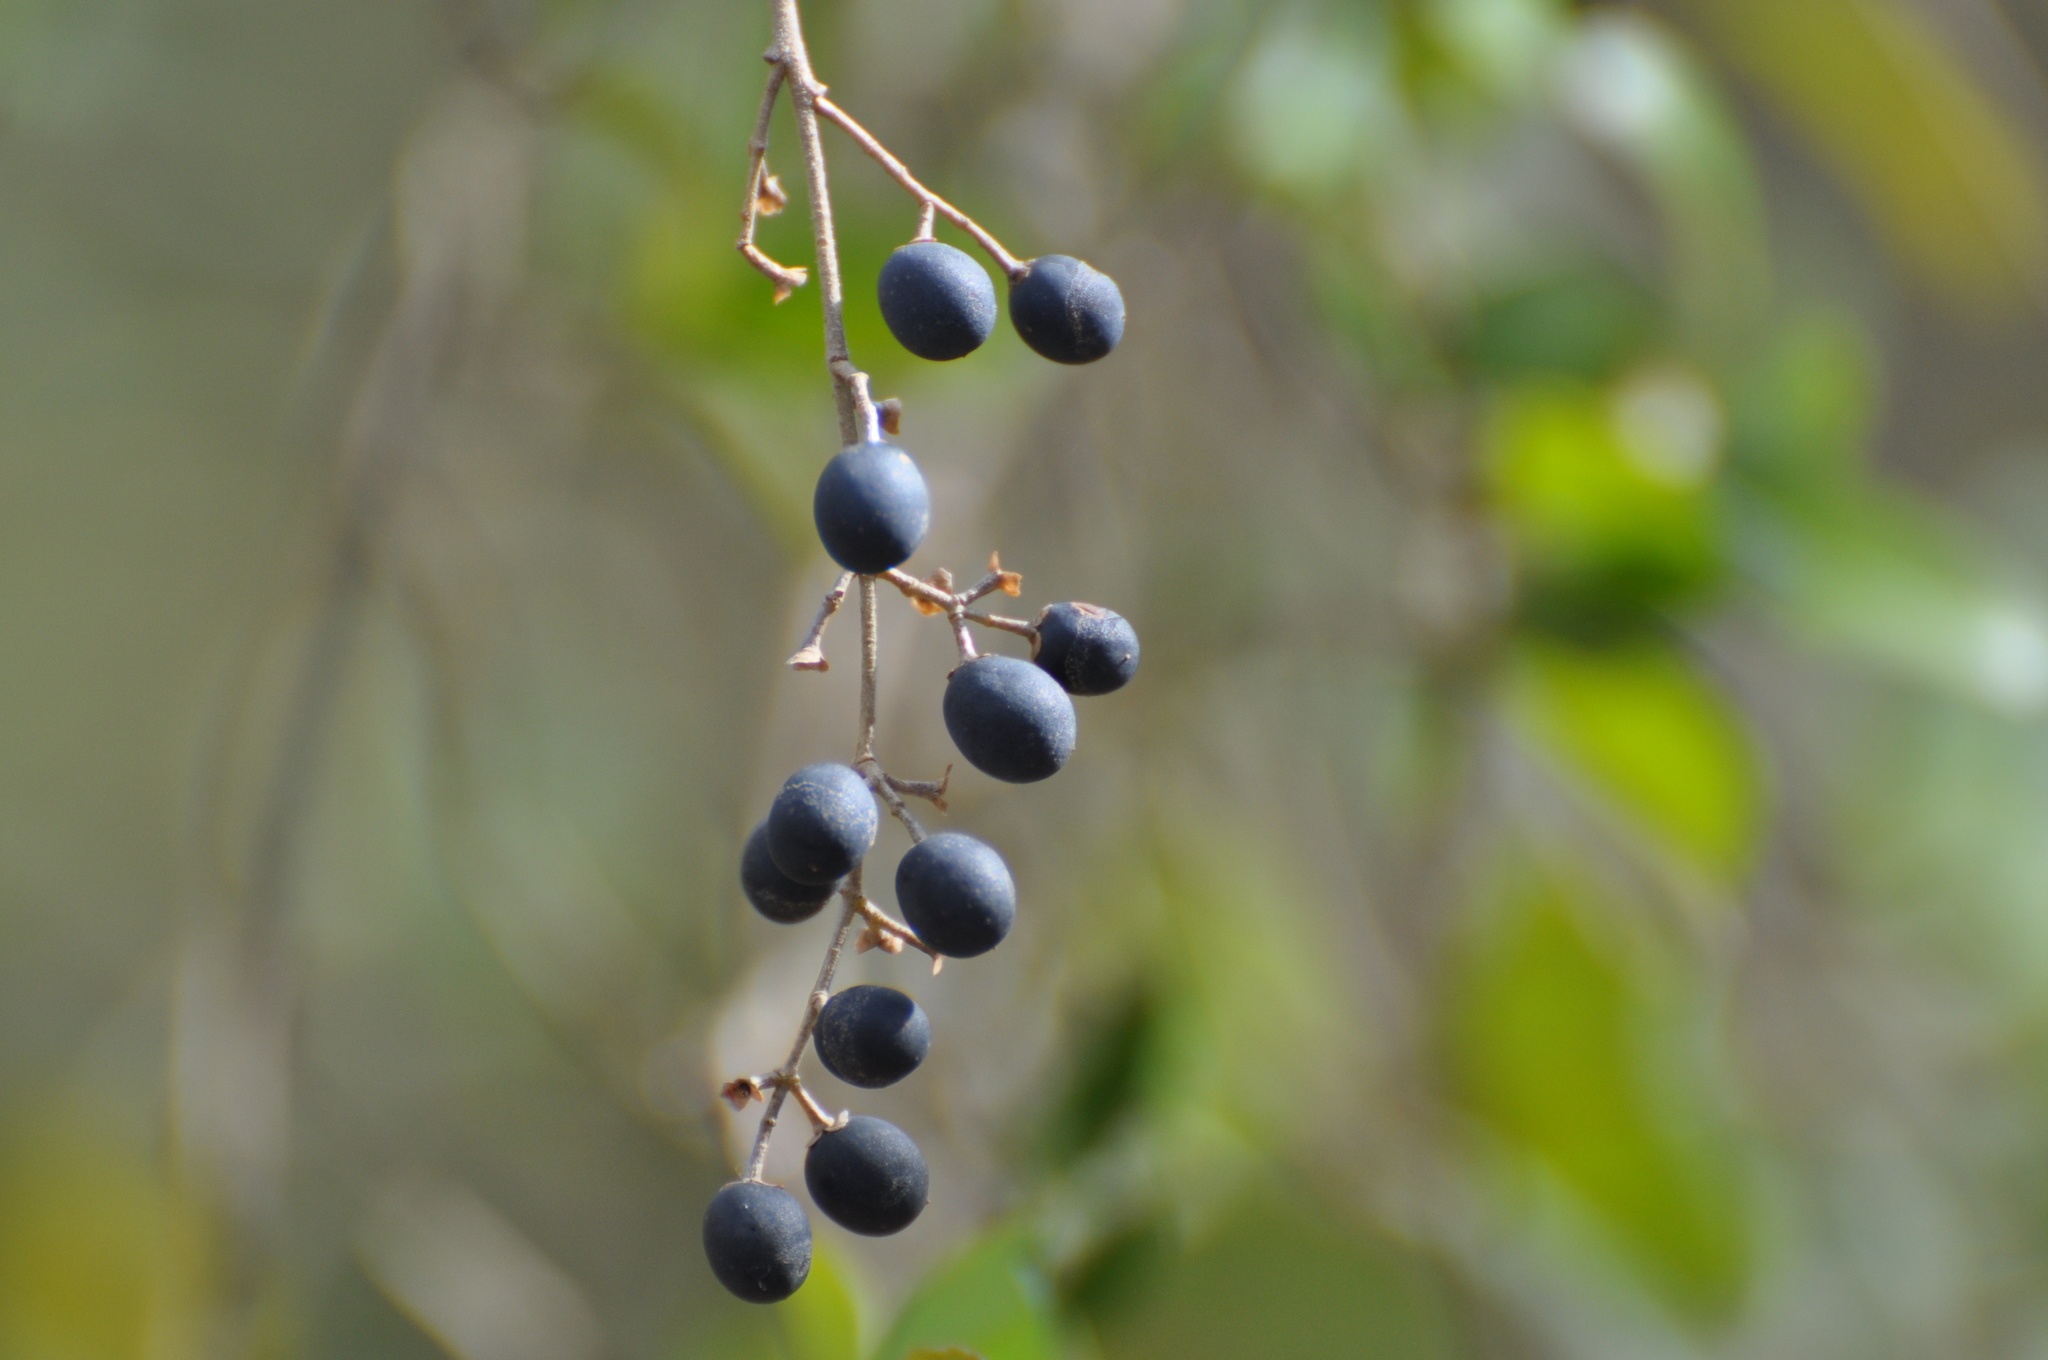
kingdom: Plantae
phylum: Tracheophyta
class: Magnoliopsida
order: Lamiales
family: Oleaceae
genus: Ligustrum
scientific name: Ligustrum sinense
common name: Chinese privet
